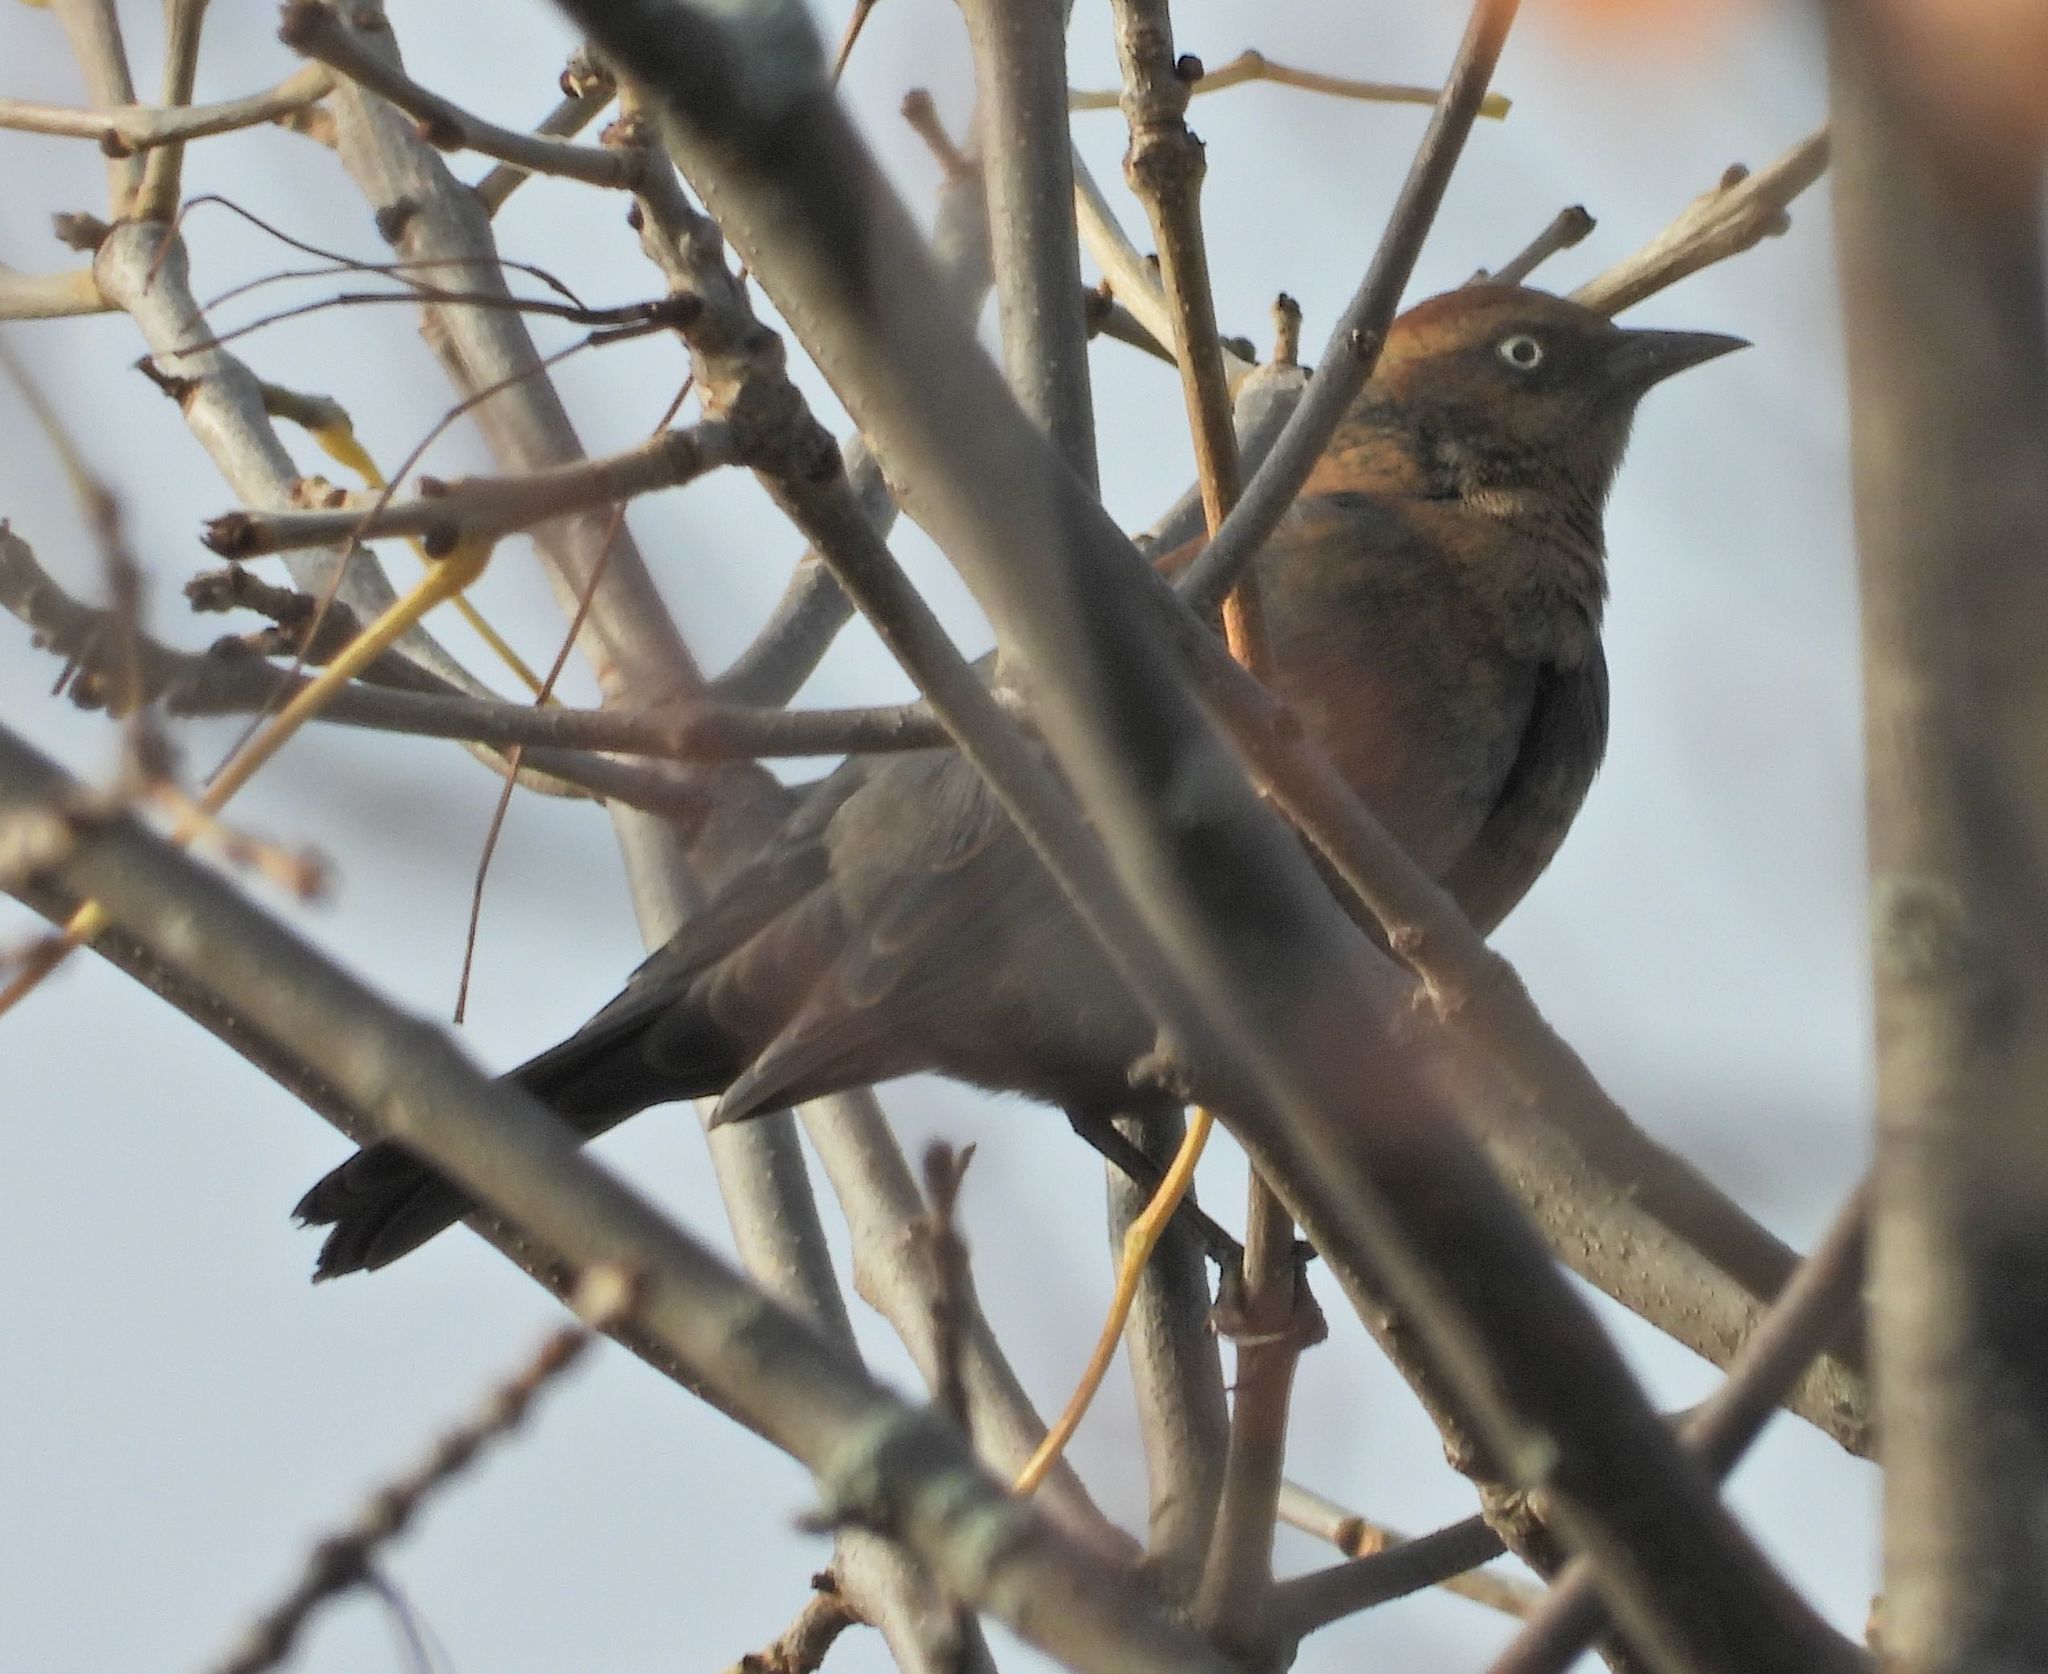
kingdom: Animalia
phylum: Chordata
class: Aves
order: Passeriformes
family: Icteridae
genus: Euphagus
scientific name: Euphagus carolinus
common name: Rusty blackbird
